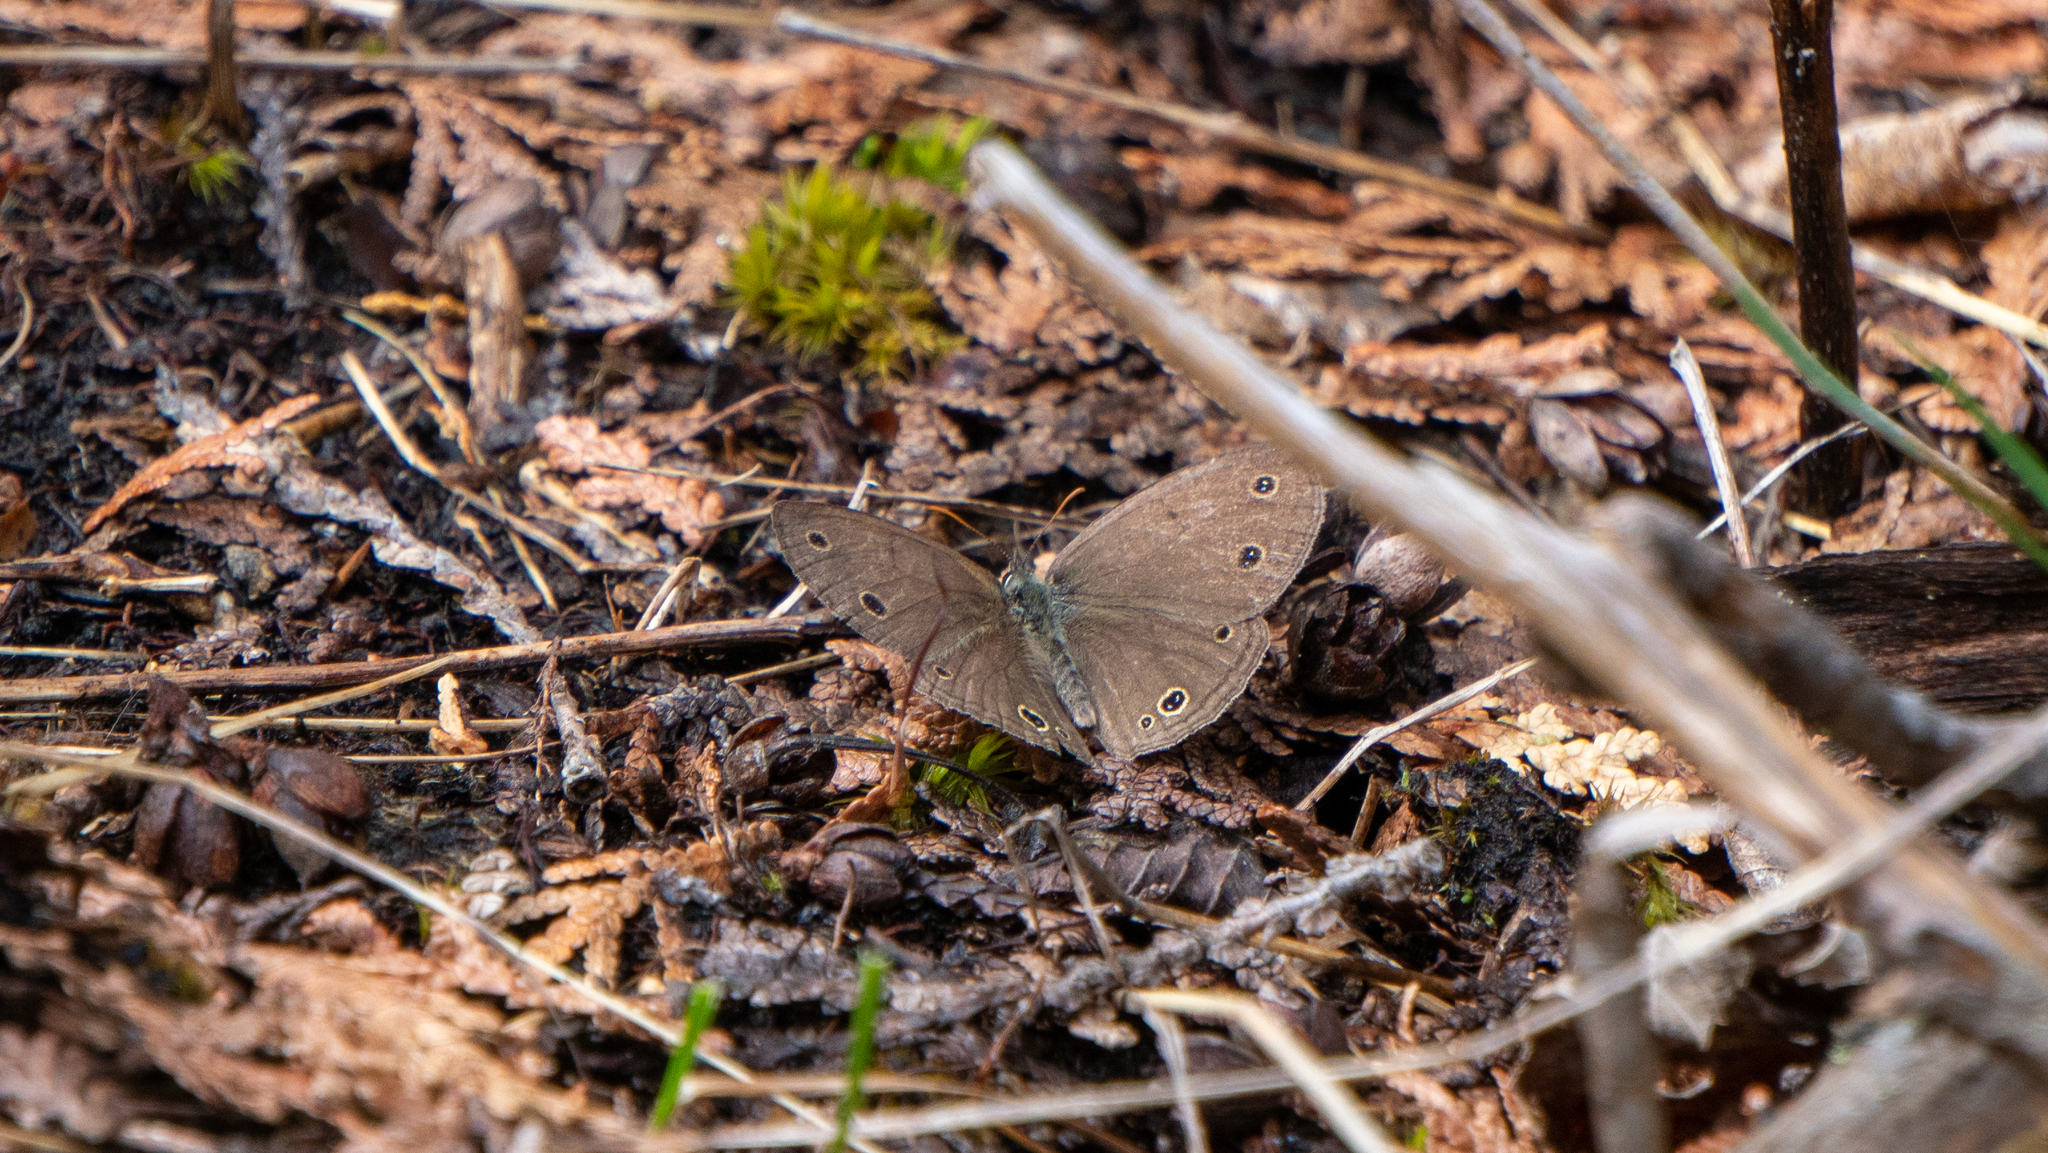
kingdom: Animalia
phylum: Arthropoda
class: Insecta
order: Lepidoptera
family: Nymphalidae
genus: Euptychia
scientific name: Euptychia cymela
